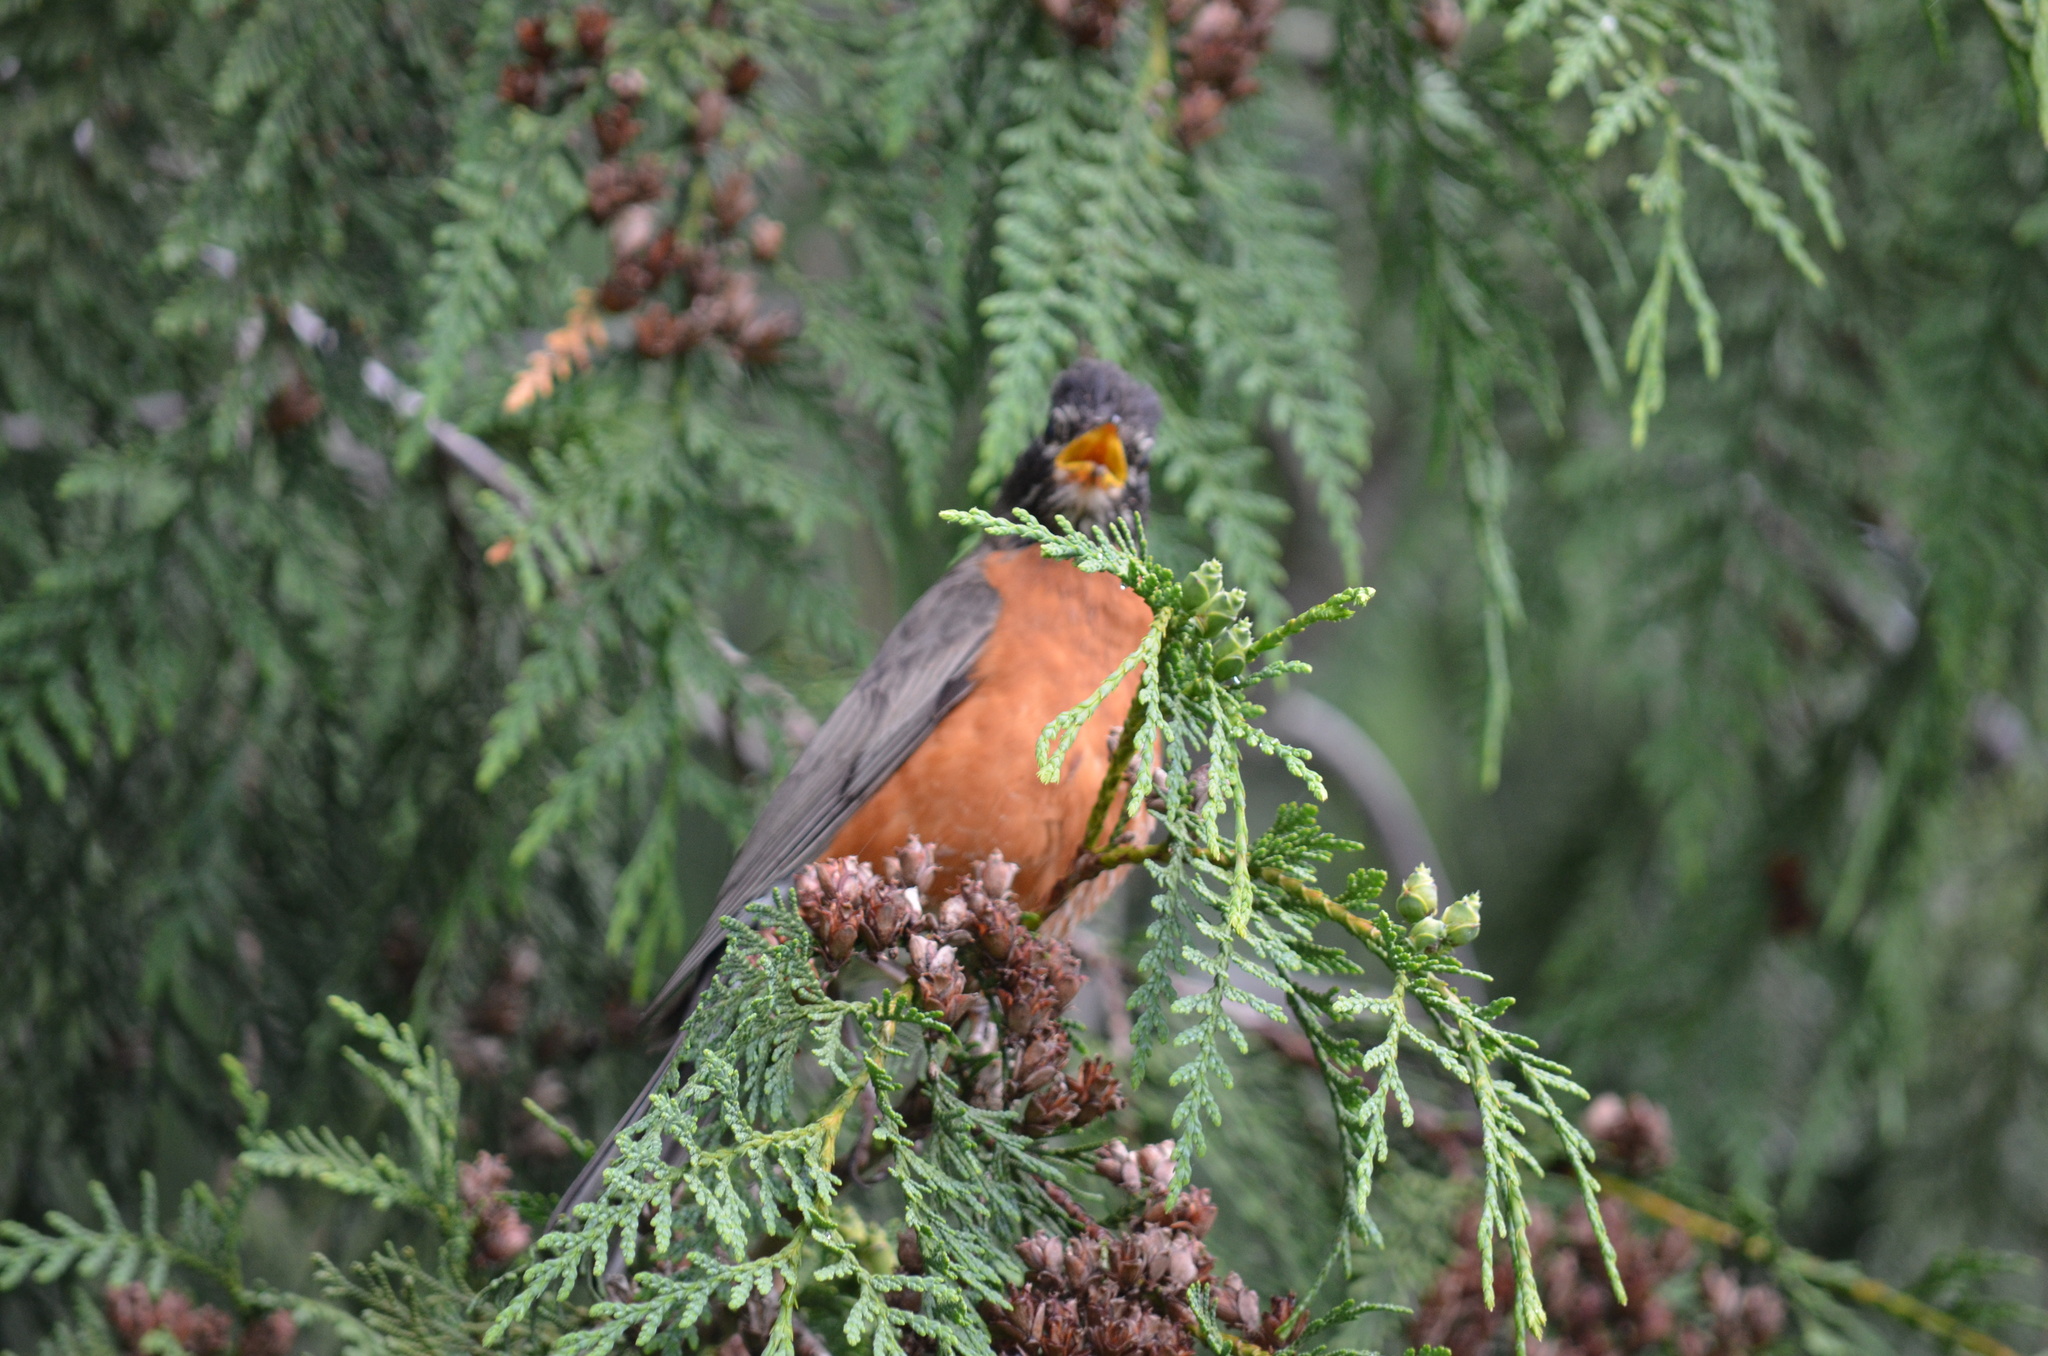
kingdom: Animalia
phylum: Chordata
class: Aves
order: Passeriformes
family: Turdidae
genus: Turdus
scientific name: Turdus migratorius
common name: American robin
